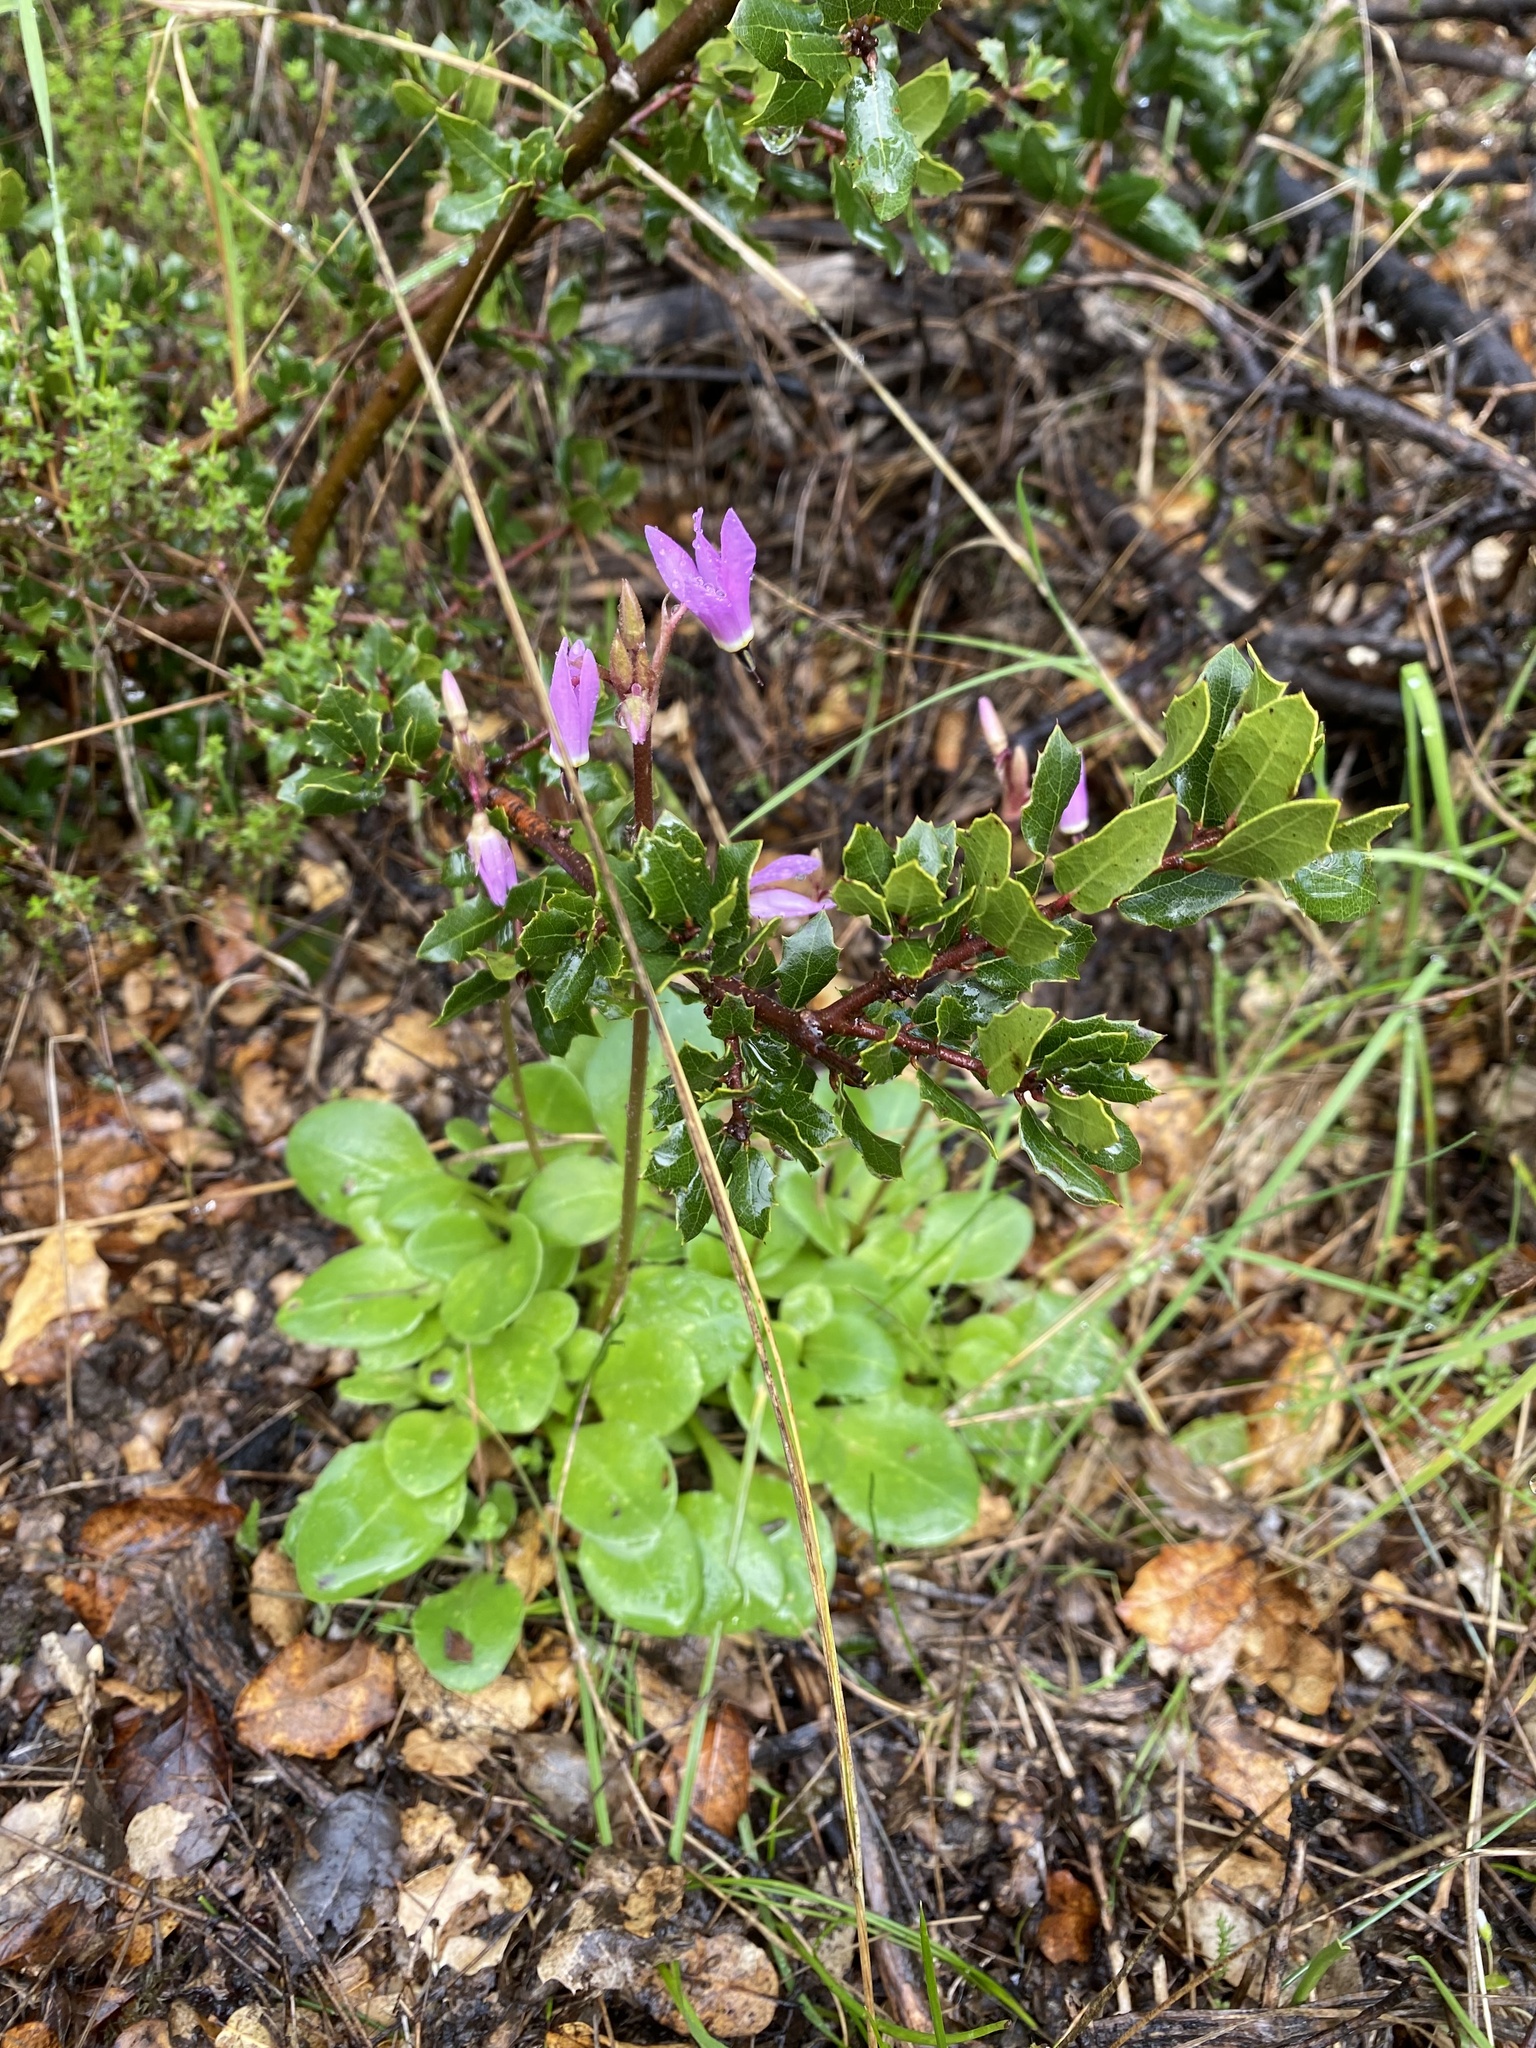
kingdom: Plantae
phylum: Tracheophyta
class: Magnoliopsida
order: Ericales
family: Primulaceae
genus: Dodecatheon
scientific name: Dodecatheon hendersonii
